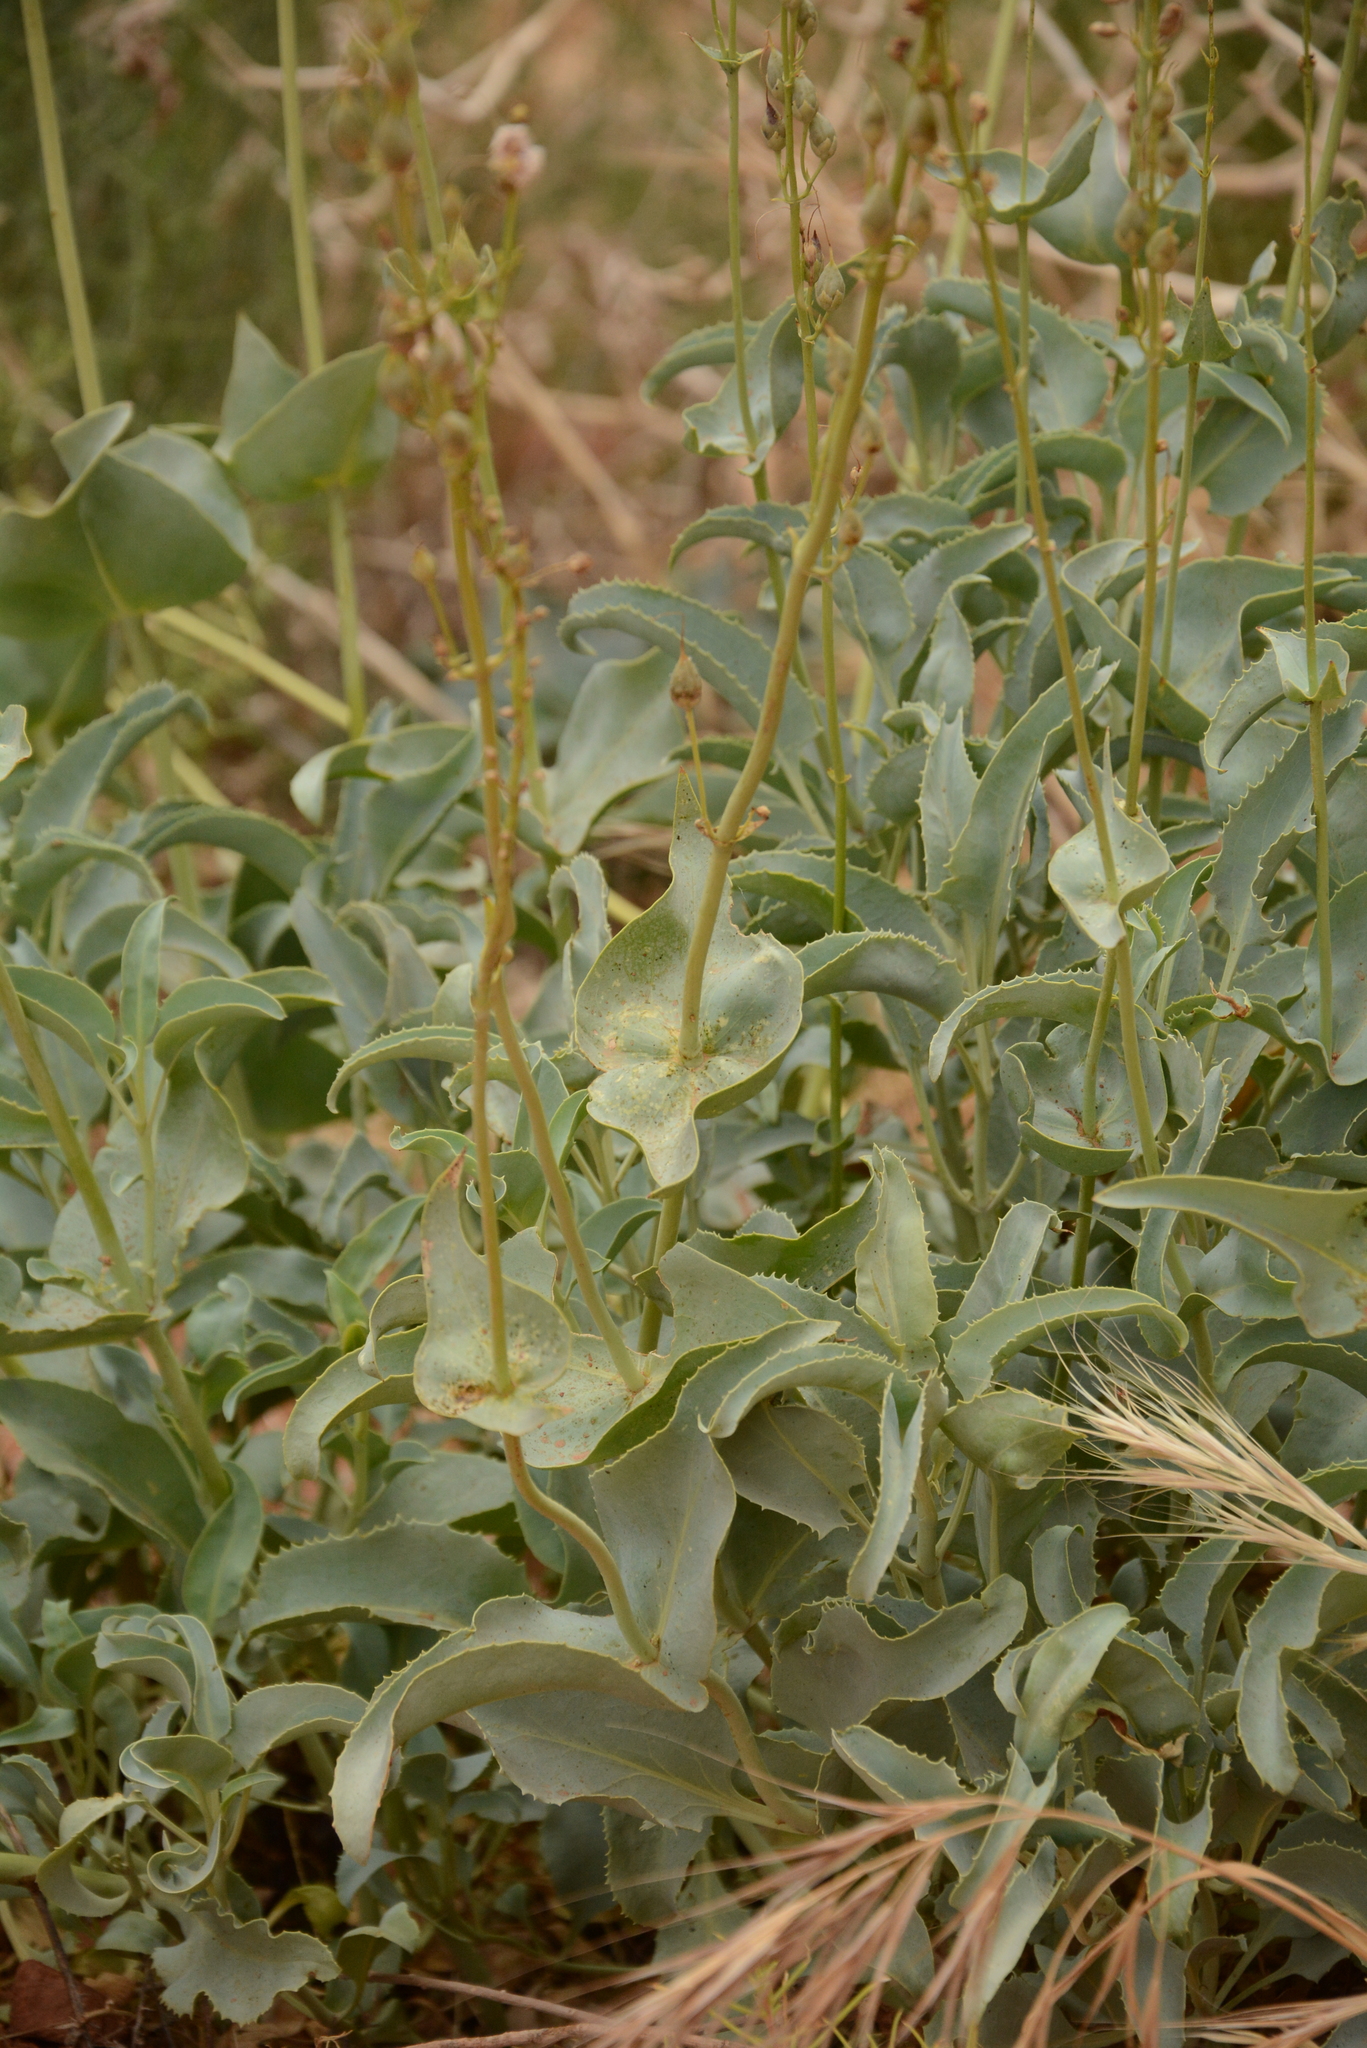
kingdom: Plantae
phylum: Tracheophyta
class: Magnoliopsida
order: Lamiales
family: Plantaginaceae
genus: Penstemon
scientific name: Penstemon palmeri
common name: Palmer penstemon
